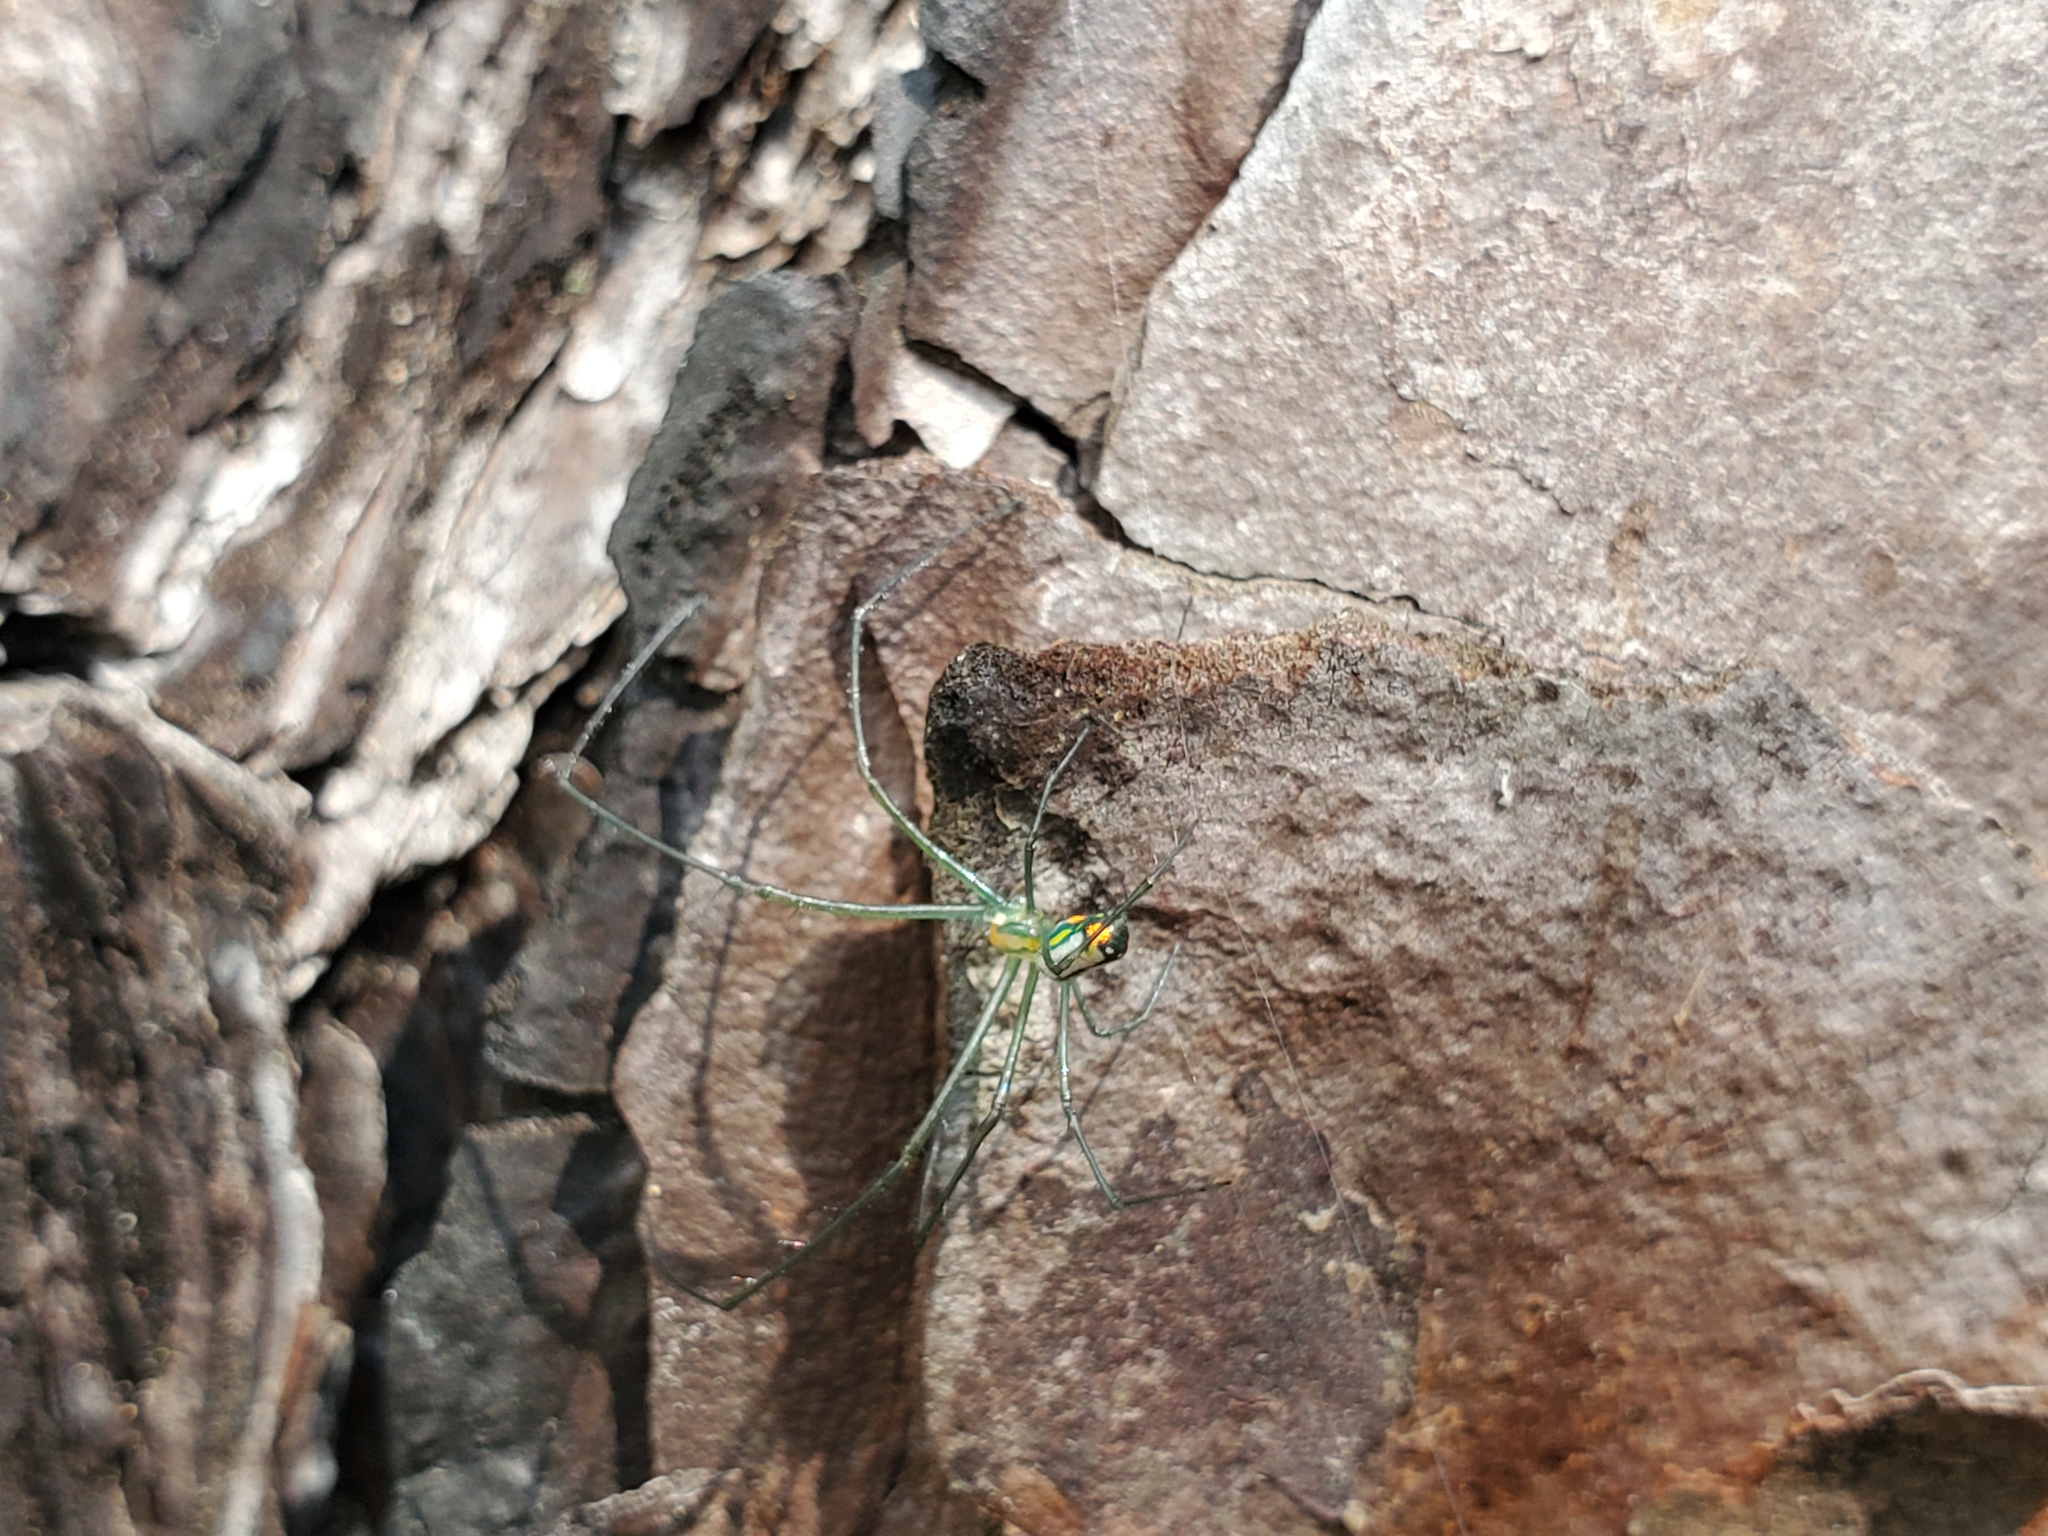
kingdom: Animalia
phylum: Arthropoda
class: Arachnida
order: Araneae
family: Tetragnathidae
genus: Leucauge
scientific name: Leucauge argyrobapta
